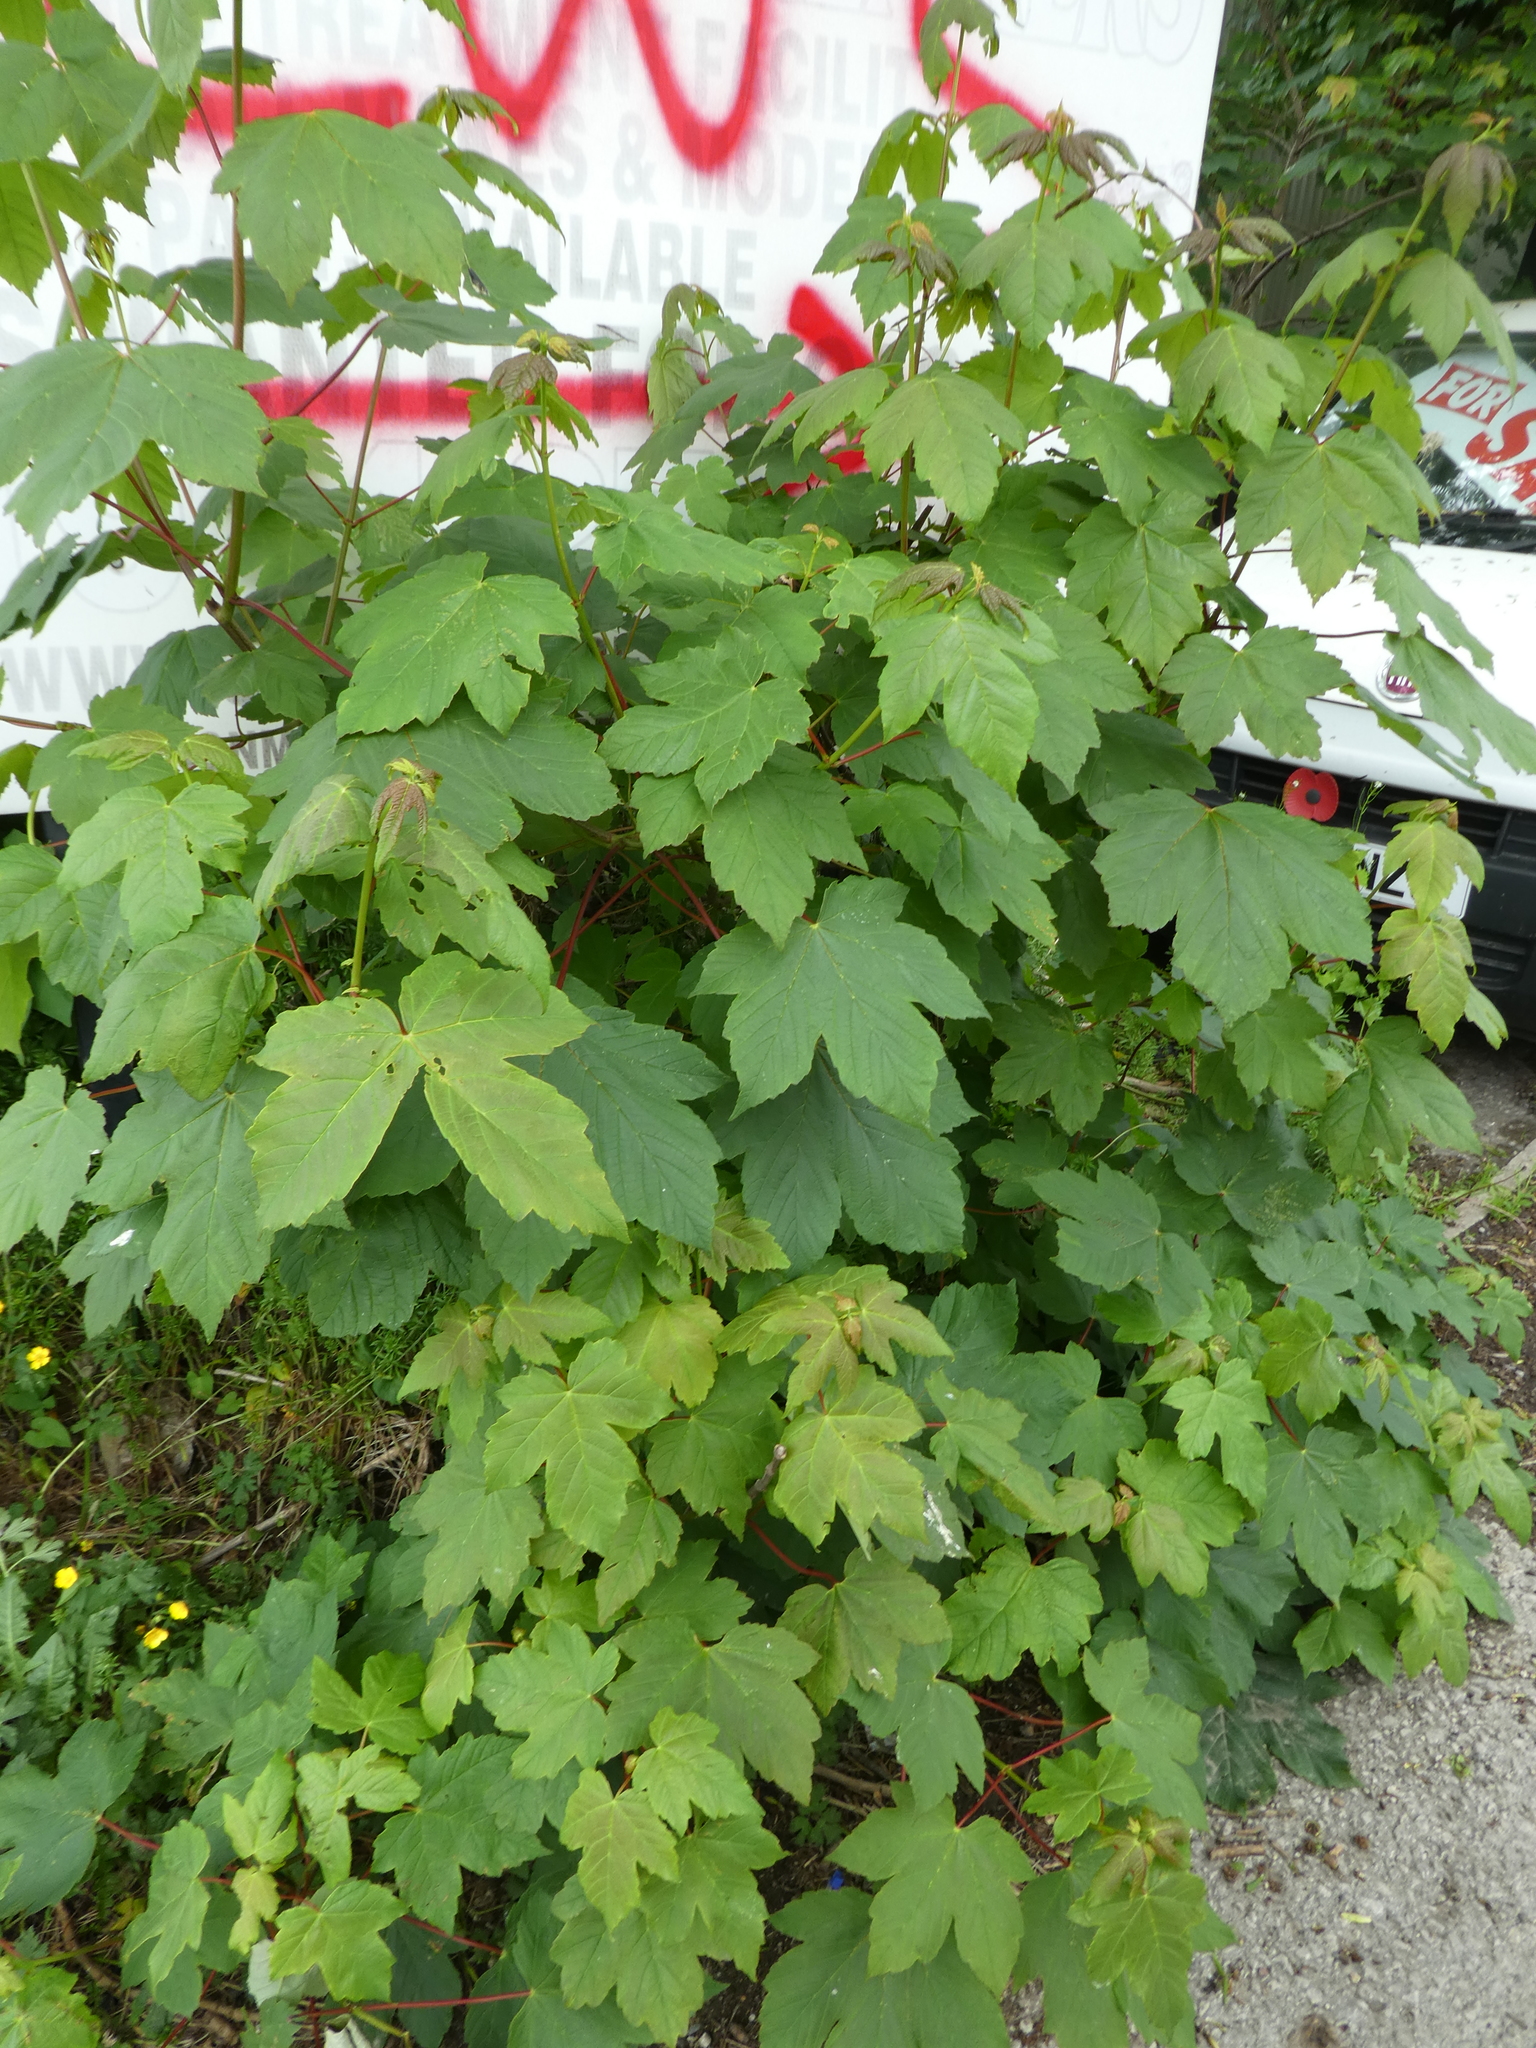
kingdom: Plantae
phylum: Tracheophyta
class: Magnoliopsida
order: Sapindales
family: Sapindaceae
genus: Acer
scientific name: Acer pseudoplatanus
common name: Sycamore
